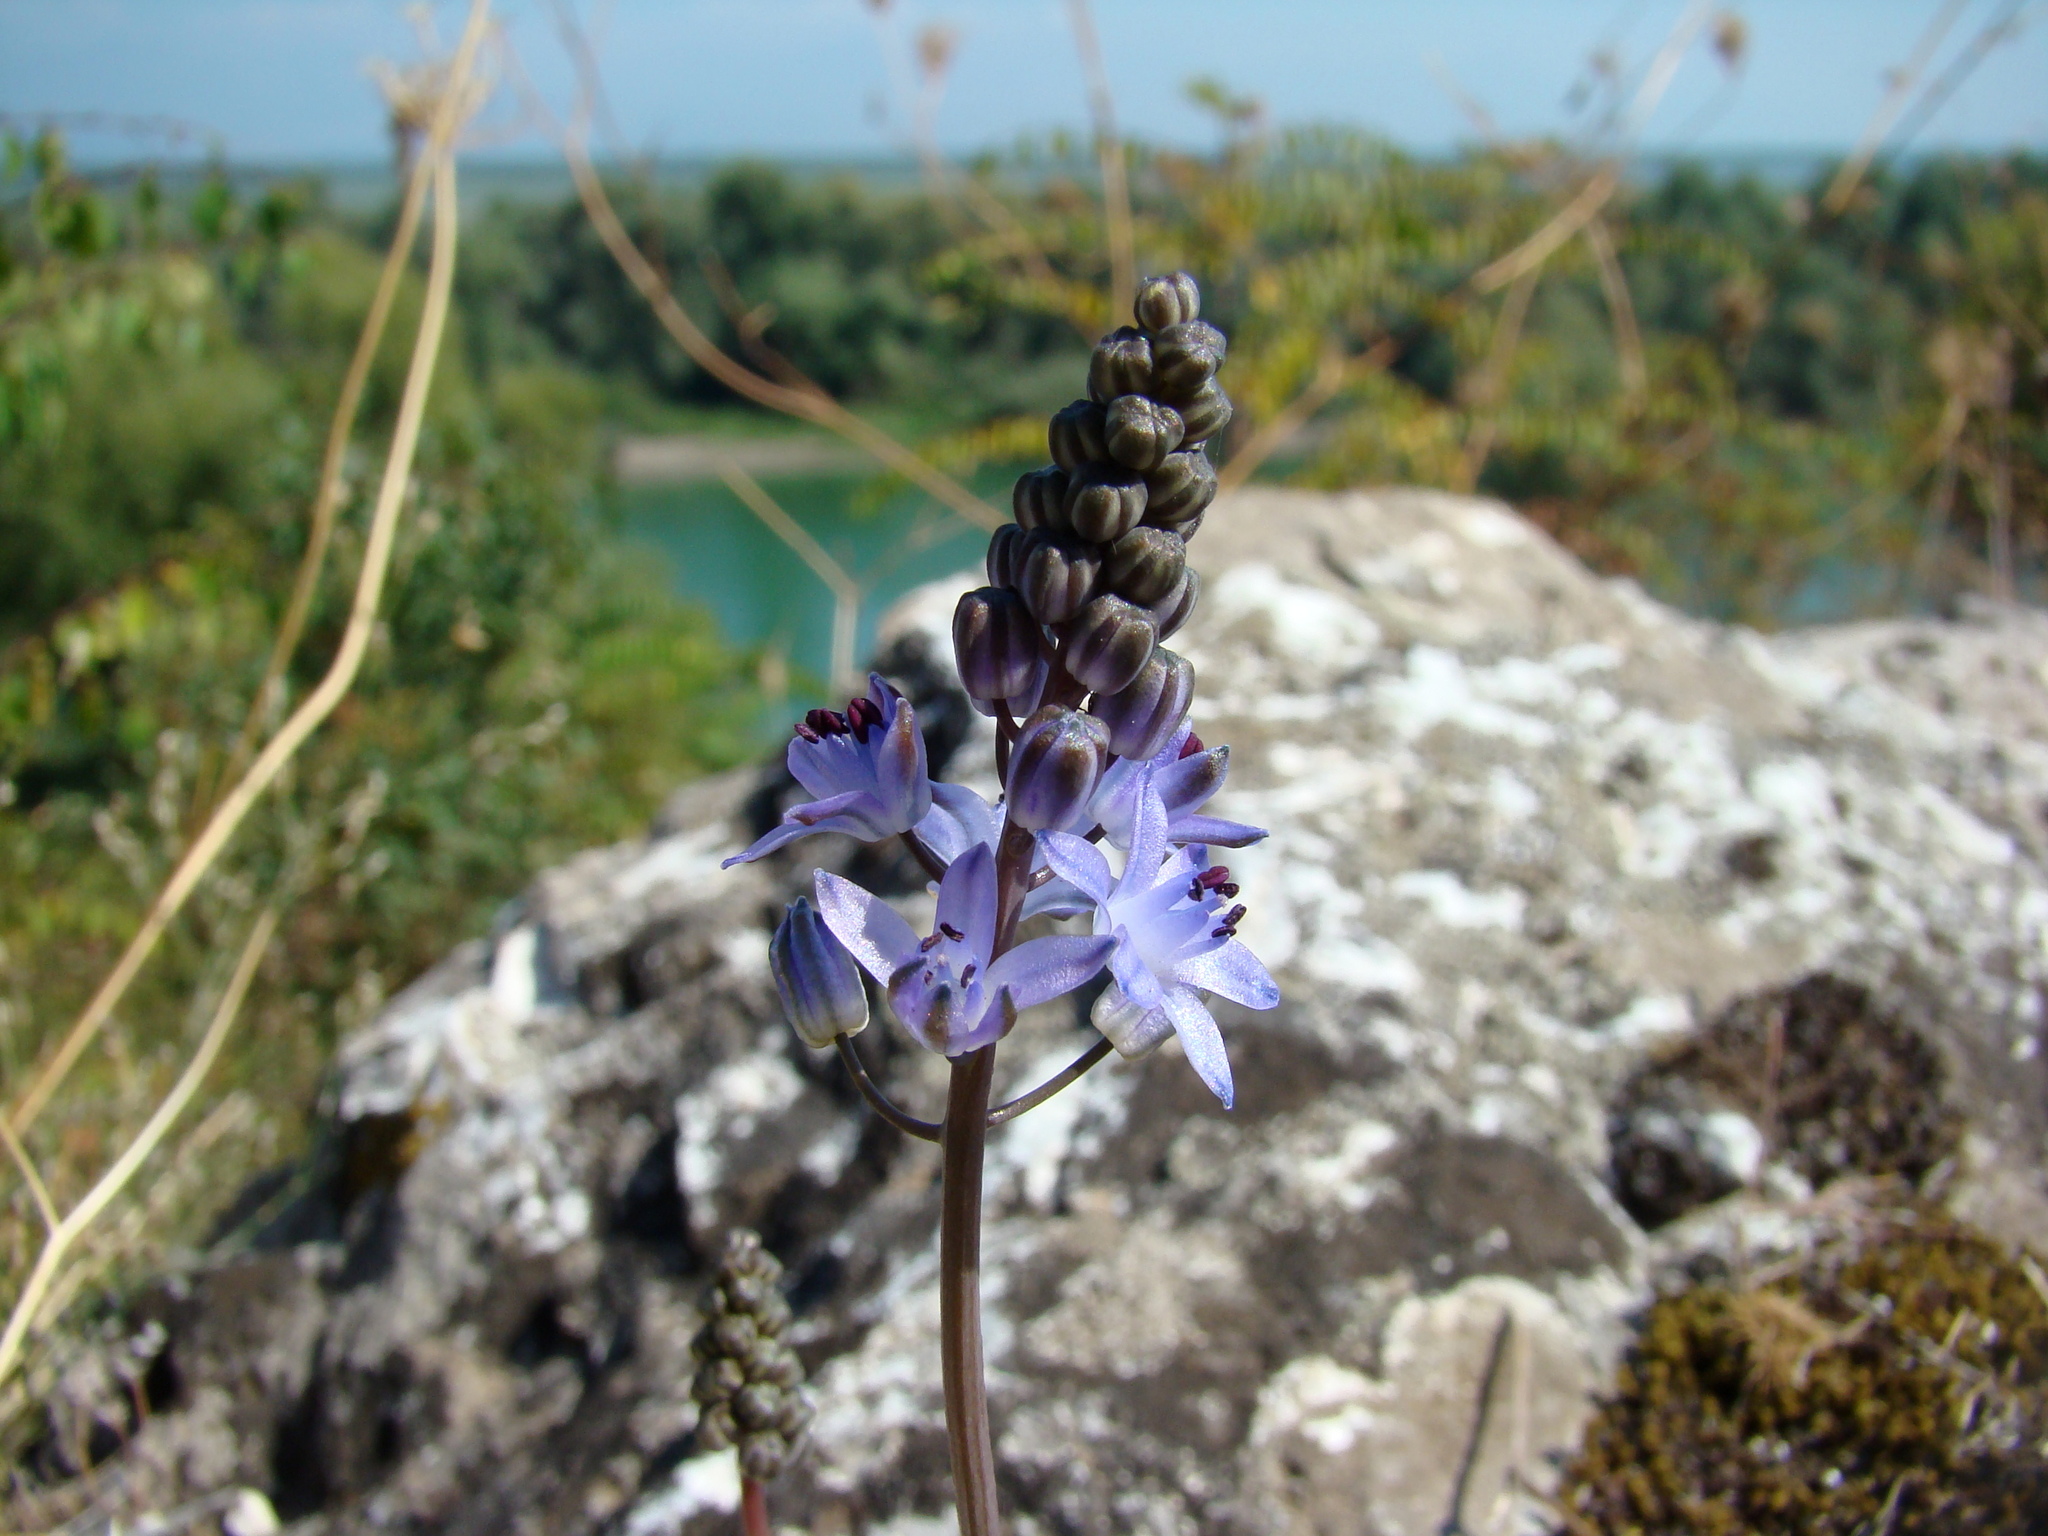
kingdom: Plantae
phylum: Tracheophyta
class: Liliopsida
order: Asparagales
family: Asparagaceae
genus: Prospero
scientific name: Prospero autumnale
